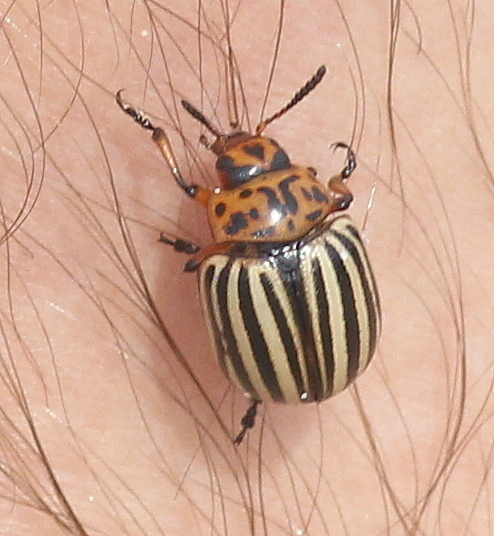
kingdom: Animalia
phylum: Arthropoda
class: Insecta
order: Coleoptera
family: Chrysomelidae
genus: Leptinotarsa
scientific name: Leptinotarsa decemlineata
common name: Colorado potato beetle
